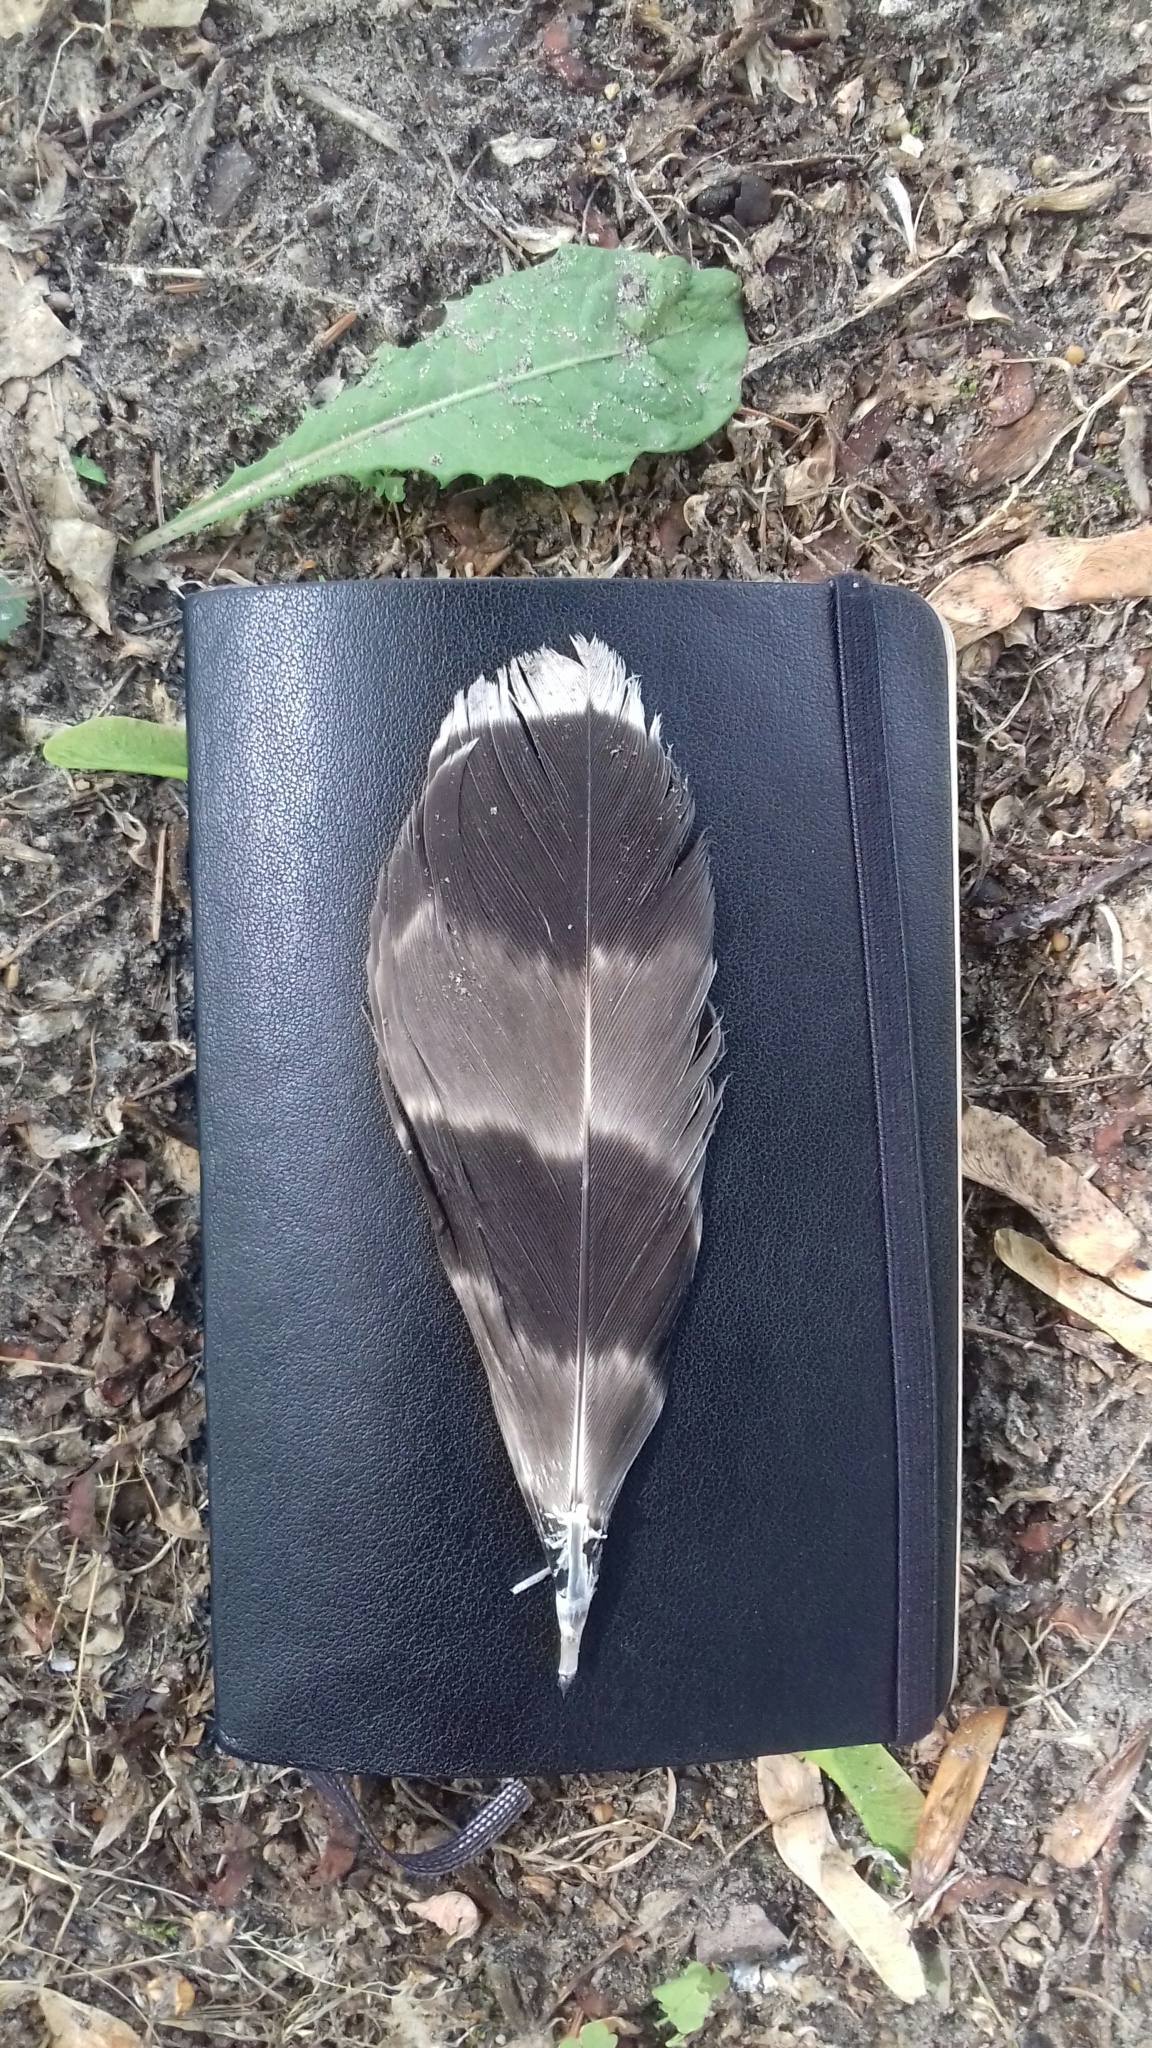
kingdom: Animalia
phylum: Chordata
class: Aves
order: Accipitriformes
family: Accipitridae
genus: Accipiter
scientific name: Accipiter gentilis
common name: Northern goshawk
